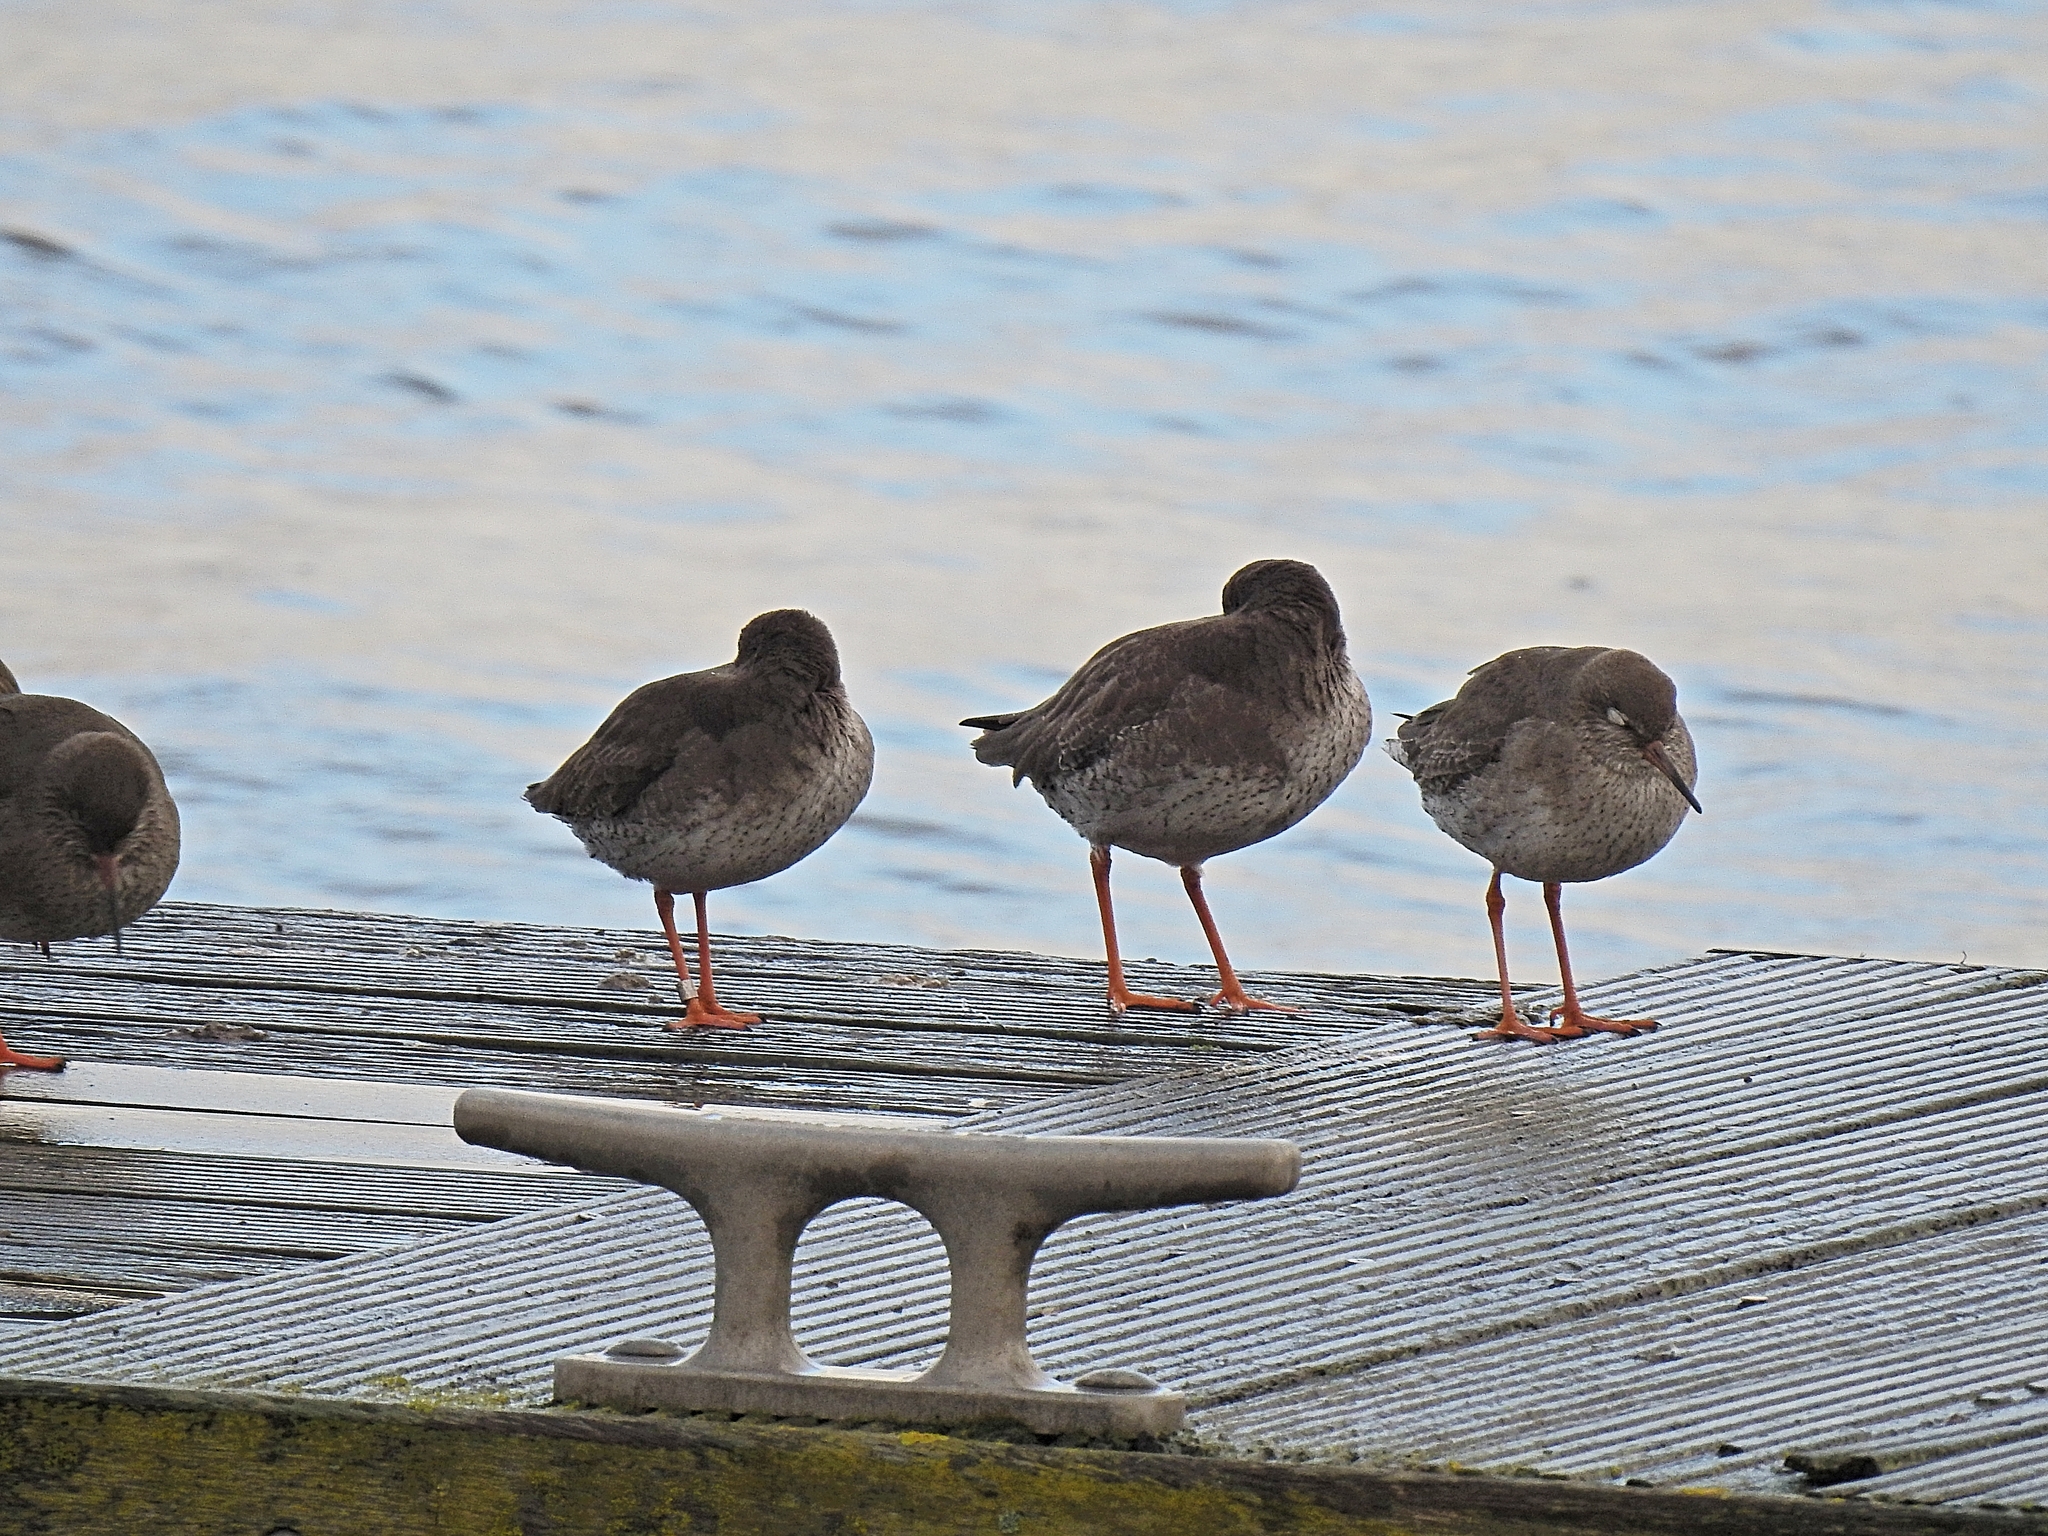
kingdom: Animalia
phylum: Chordata
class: Aves
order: Charadriiformes
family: Scolopacidae
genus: Tringa
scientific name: Tringa totanus
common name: Common redshank
